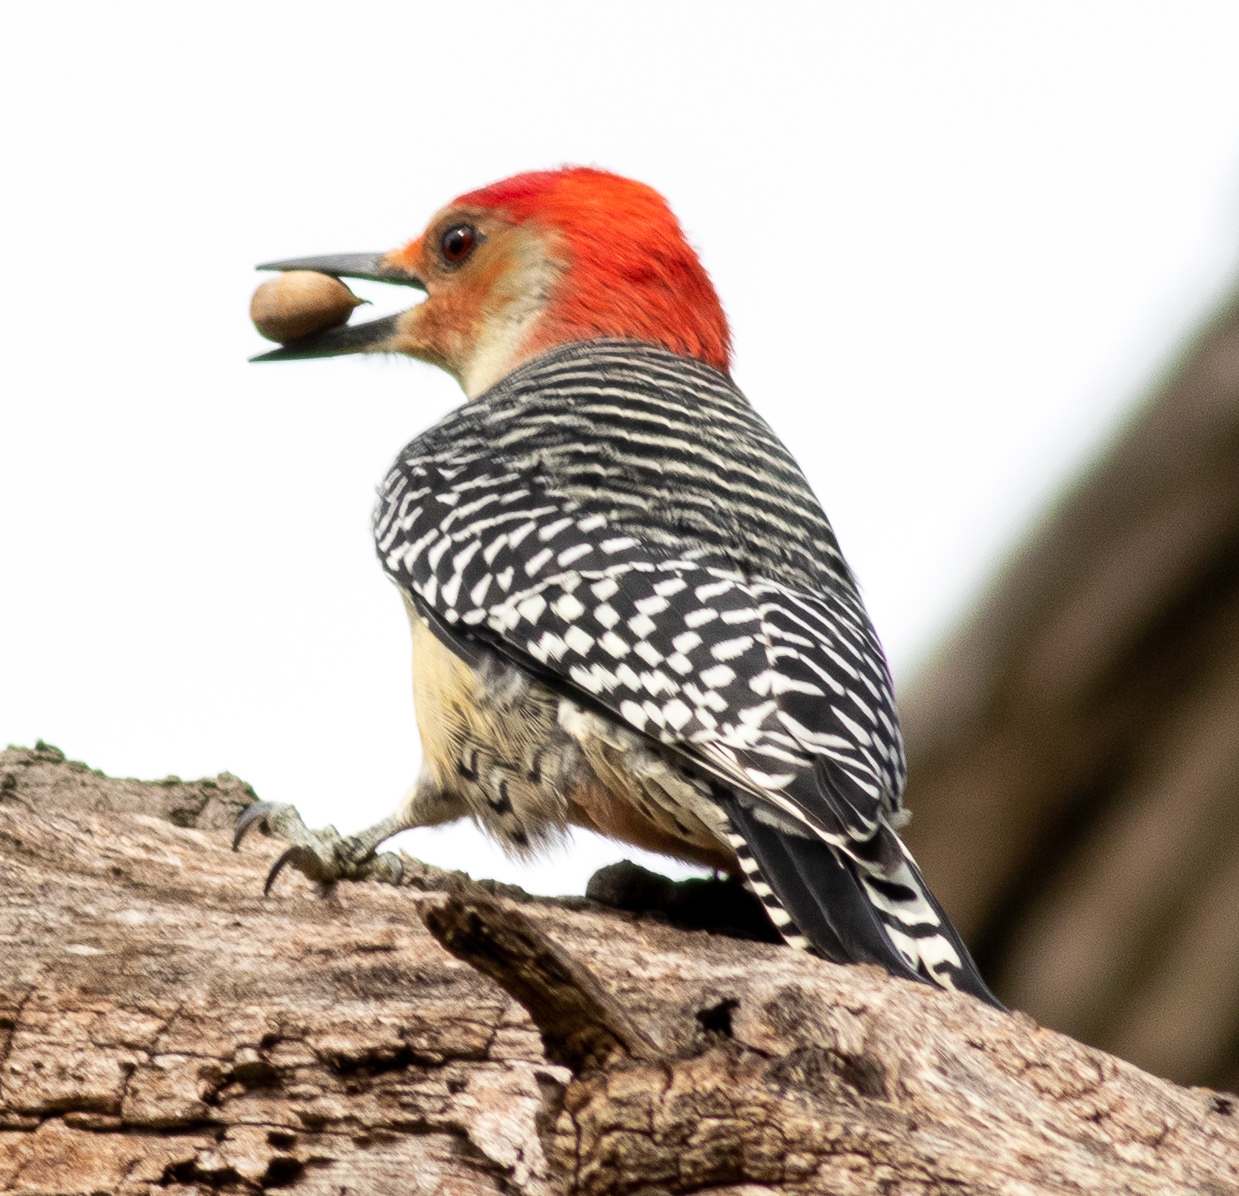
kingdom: Animalia
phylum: Chordata
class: Aves
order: Piciformes
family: Picidae
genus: Melanerpes
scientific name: Melanerpes carolinus
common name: Red-bellied woodpecker
